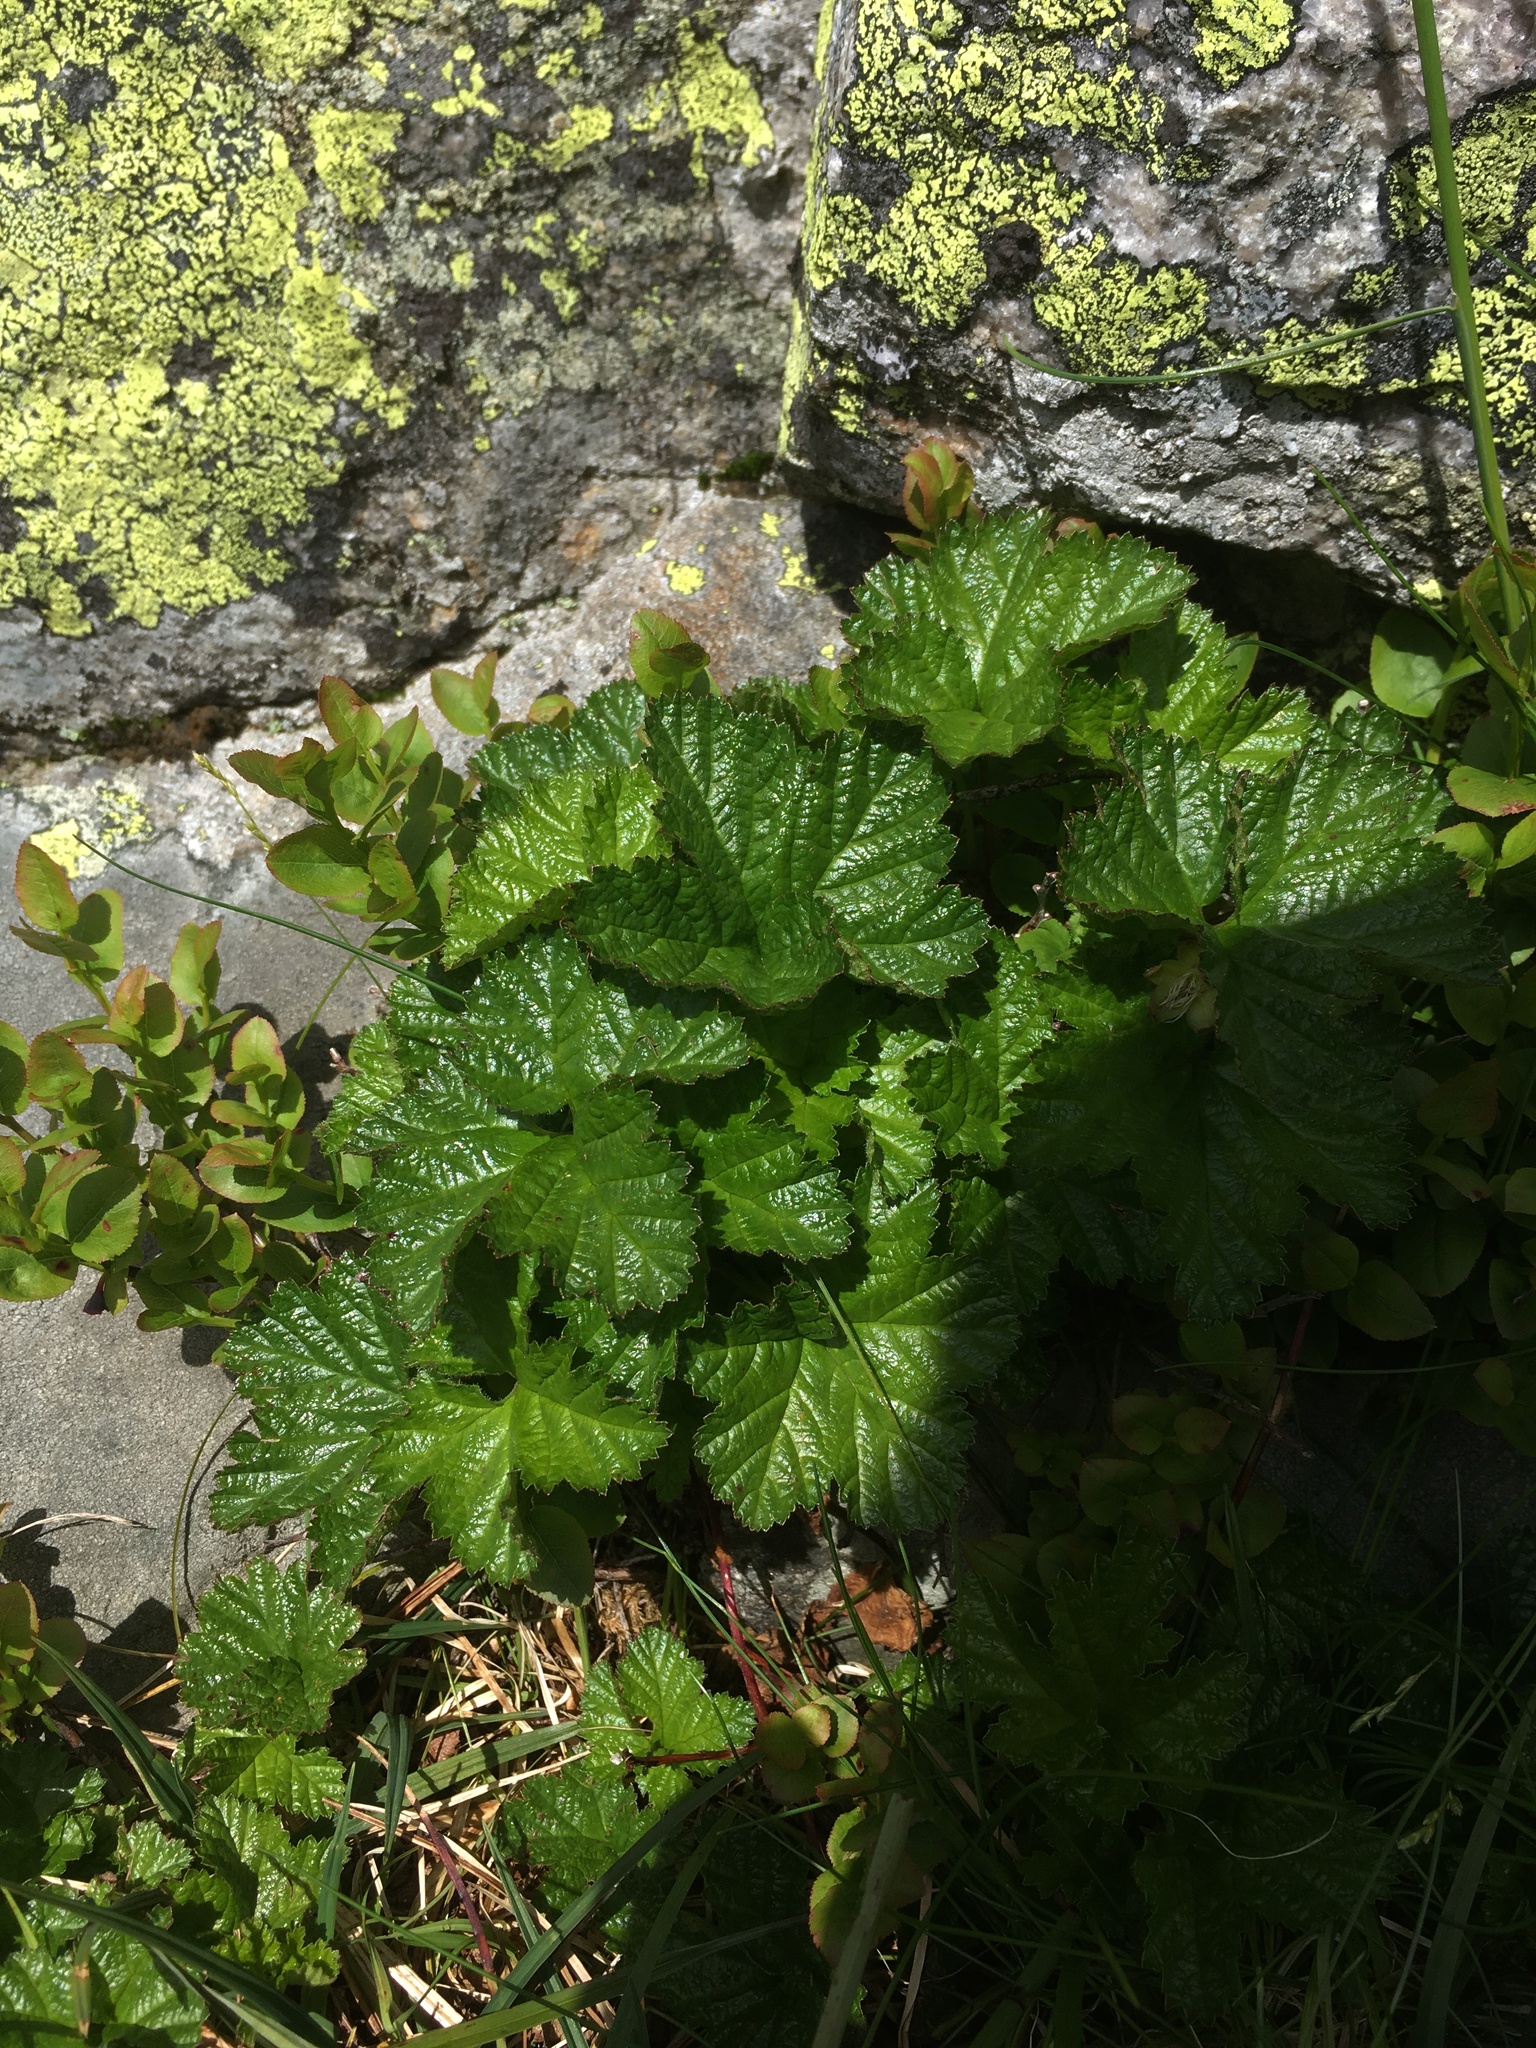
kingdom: Plantae
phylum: Tracheophyta
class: Magnoliopsida
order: Rosales
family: Rosaceae
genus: Rubus
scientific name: Rubus chamaemorus
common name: Cloudberry
